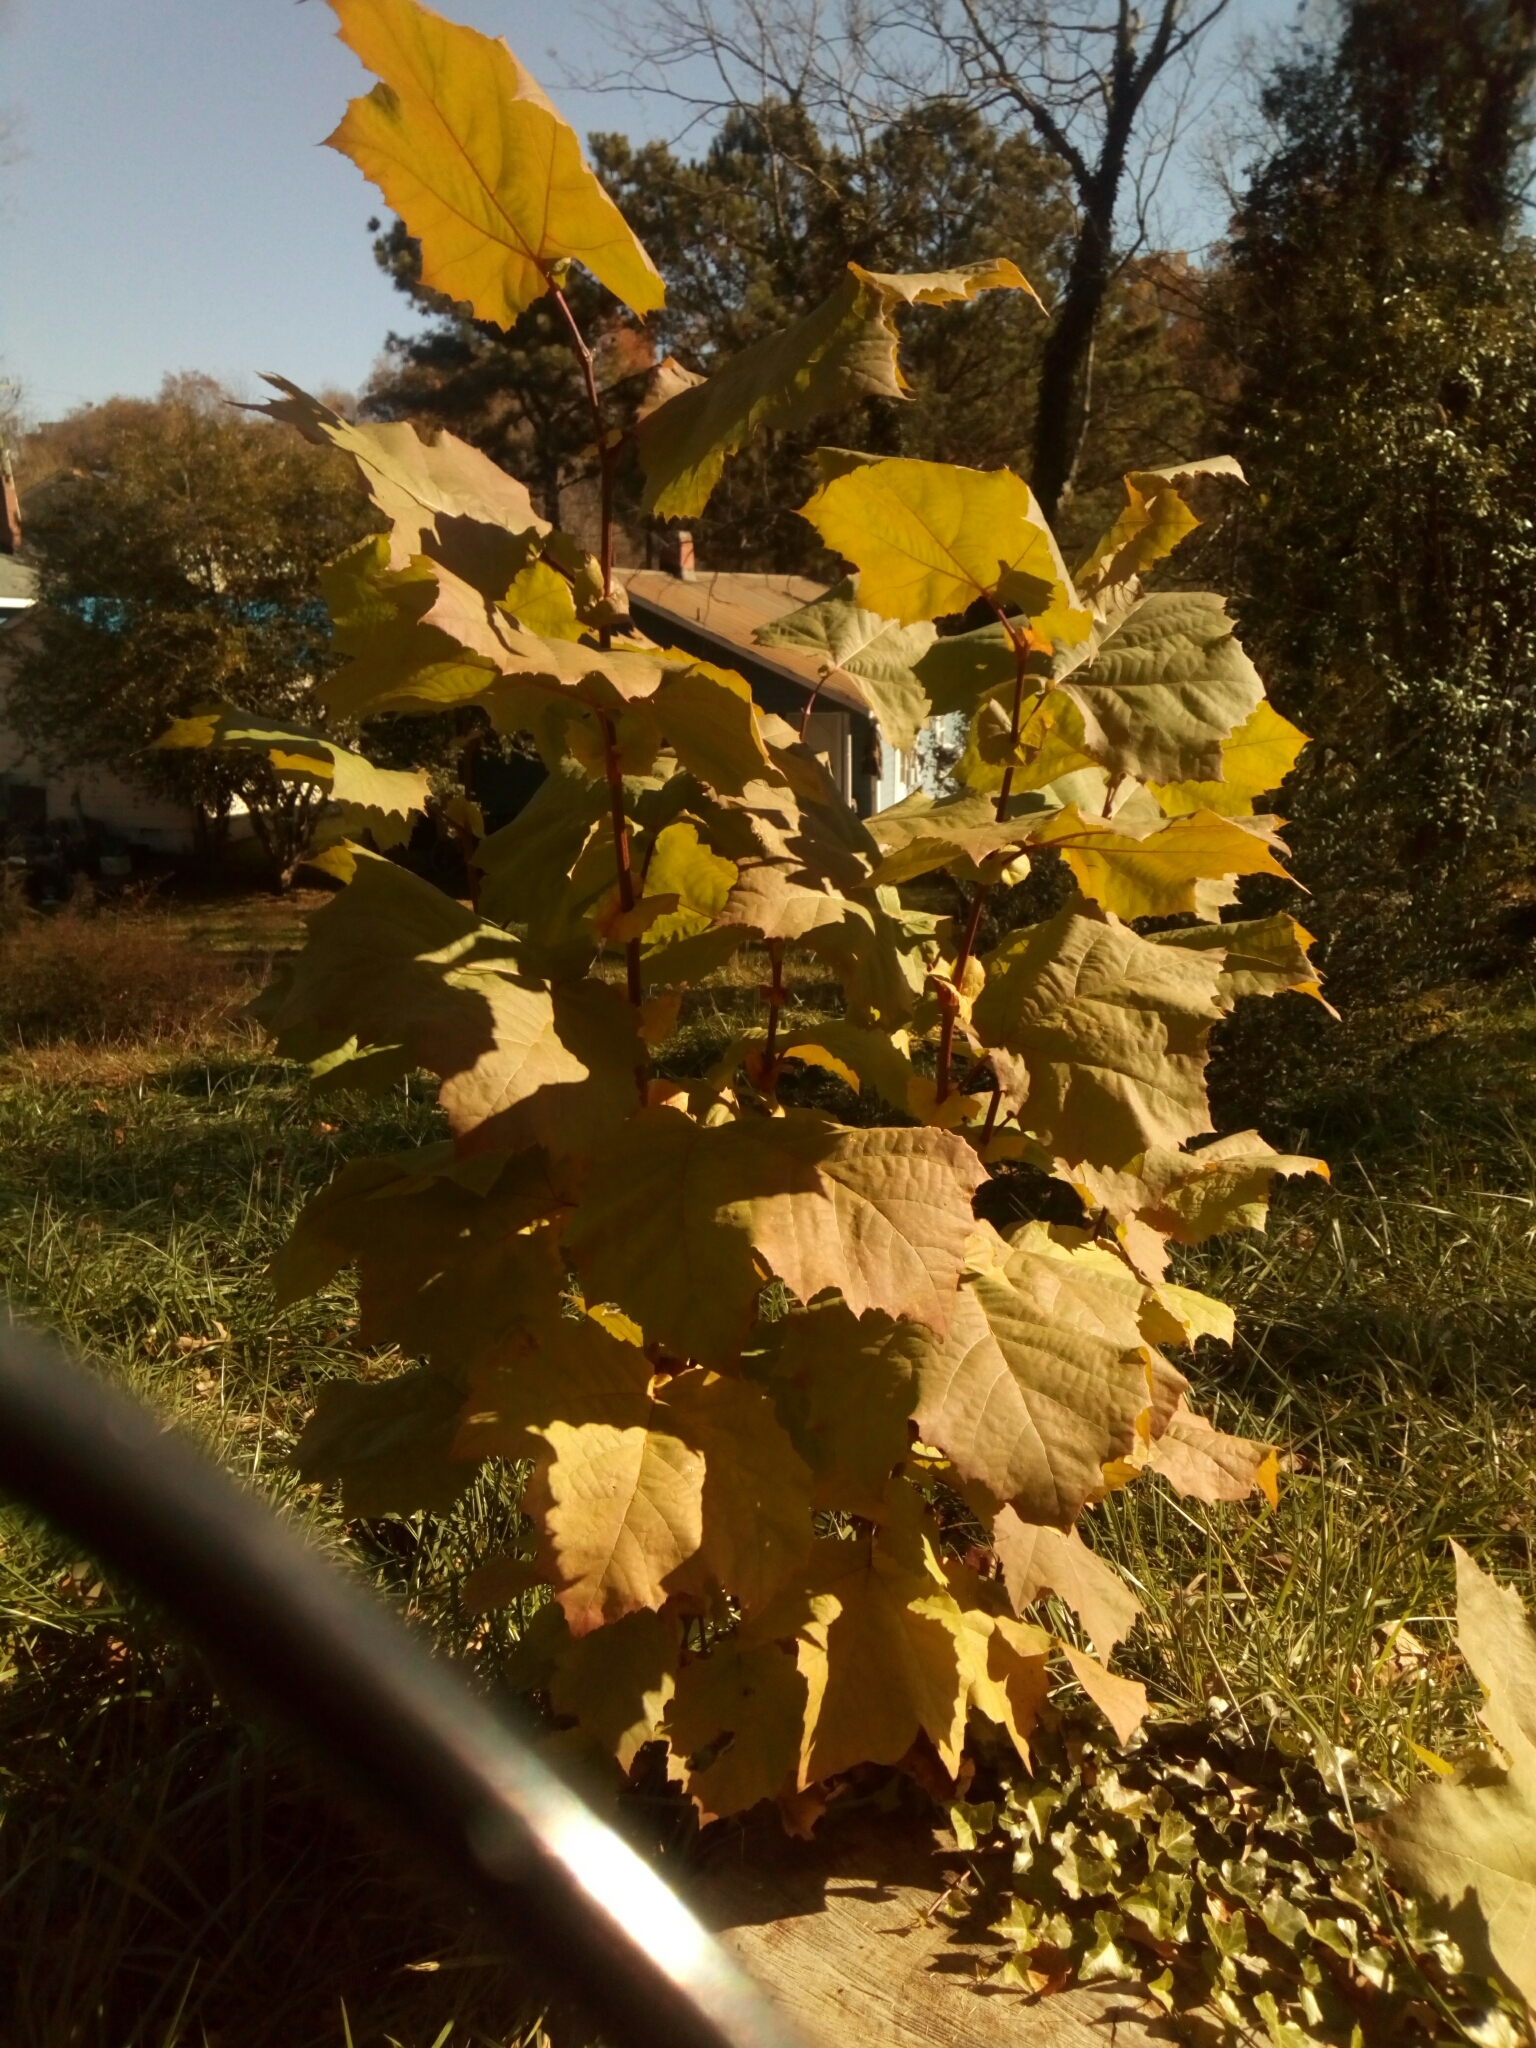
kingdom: Plantae
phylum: Tracheophyta
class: Magnoliopsida
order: Proteales
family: Platanaceae
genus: Platanus
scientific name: Platanus occidentalis
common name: American sycamore
